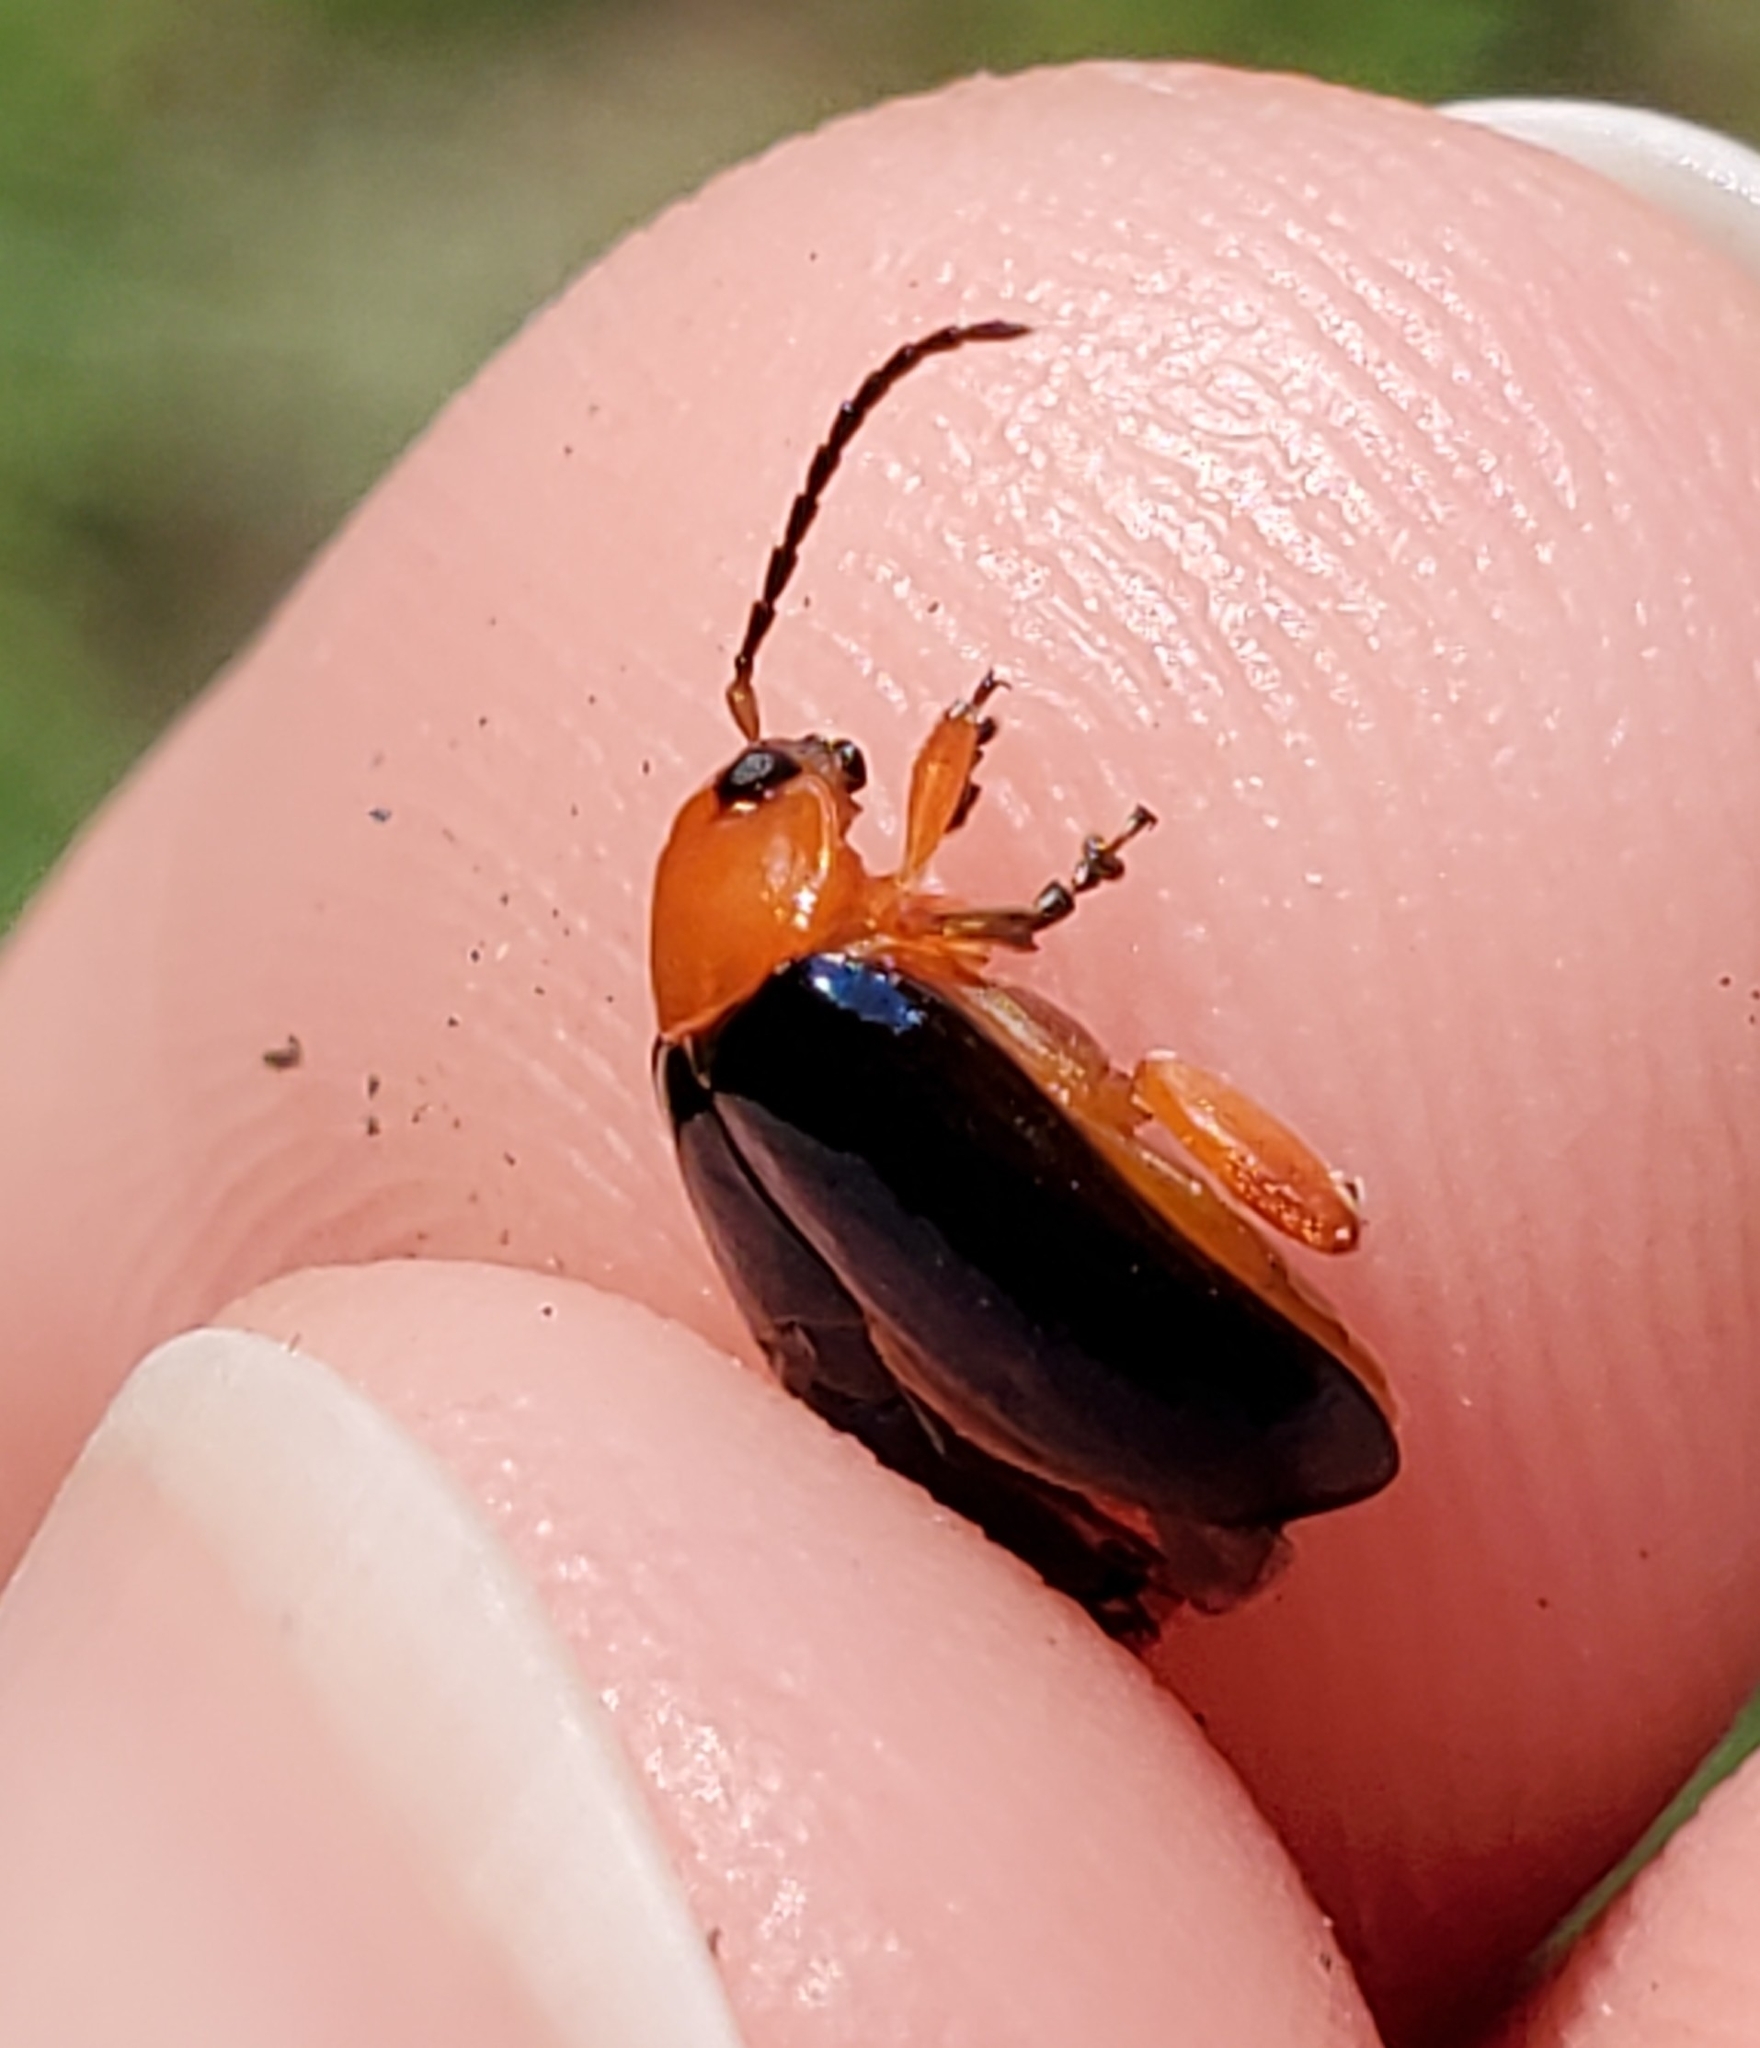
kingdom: Animalia
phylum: Arthropoda
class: Insecta
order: Coleoptera
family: Chrysomelidae
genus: Asphaera
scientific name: Asphaera lustrans
